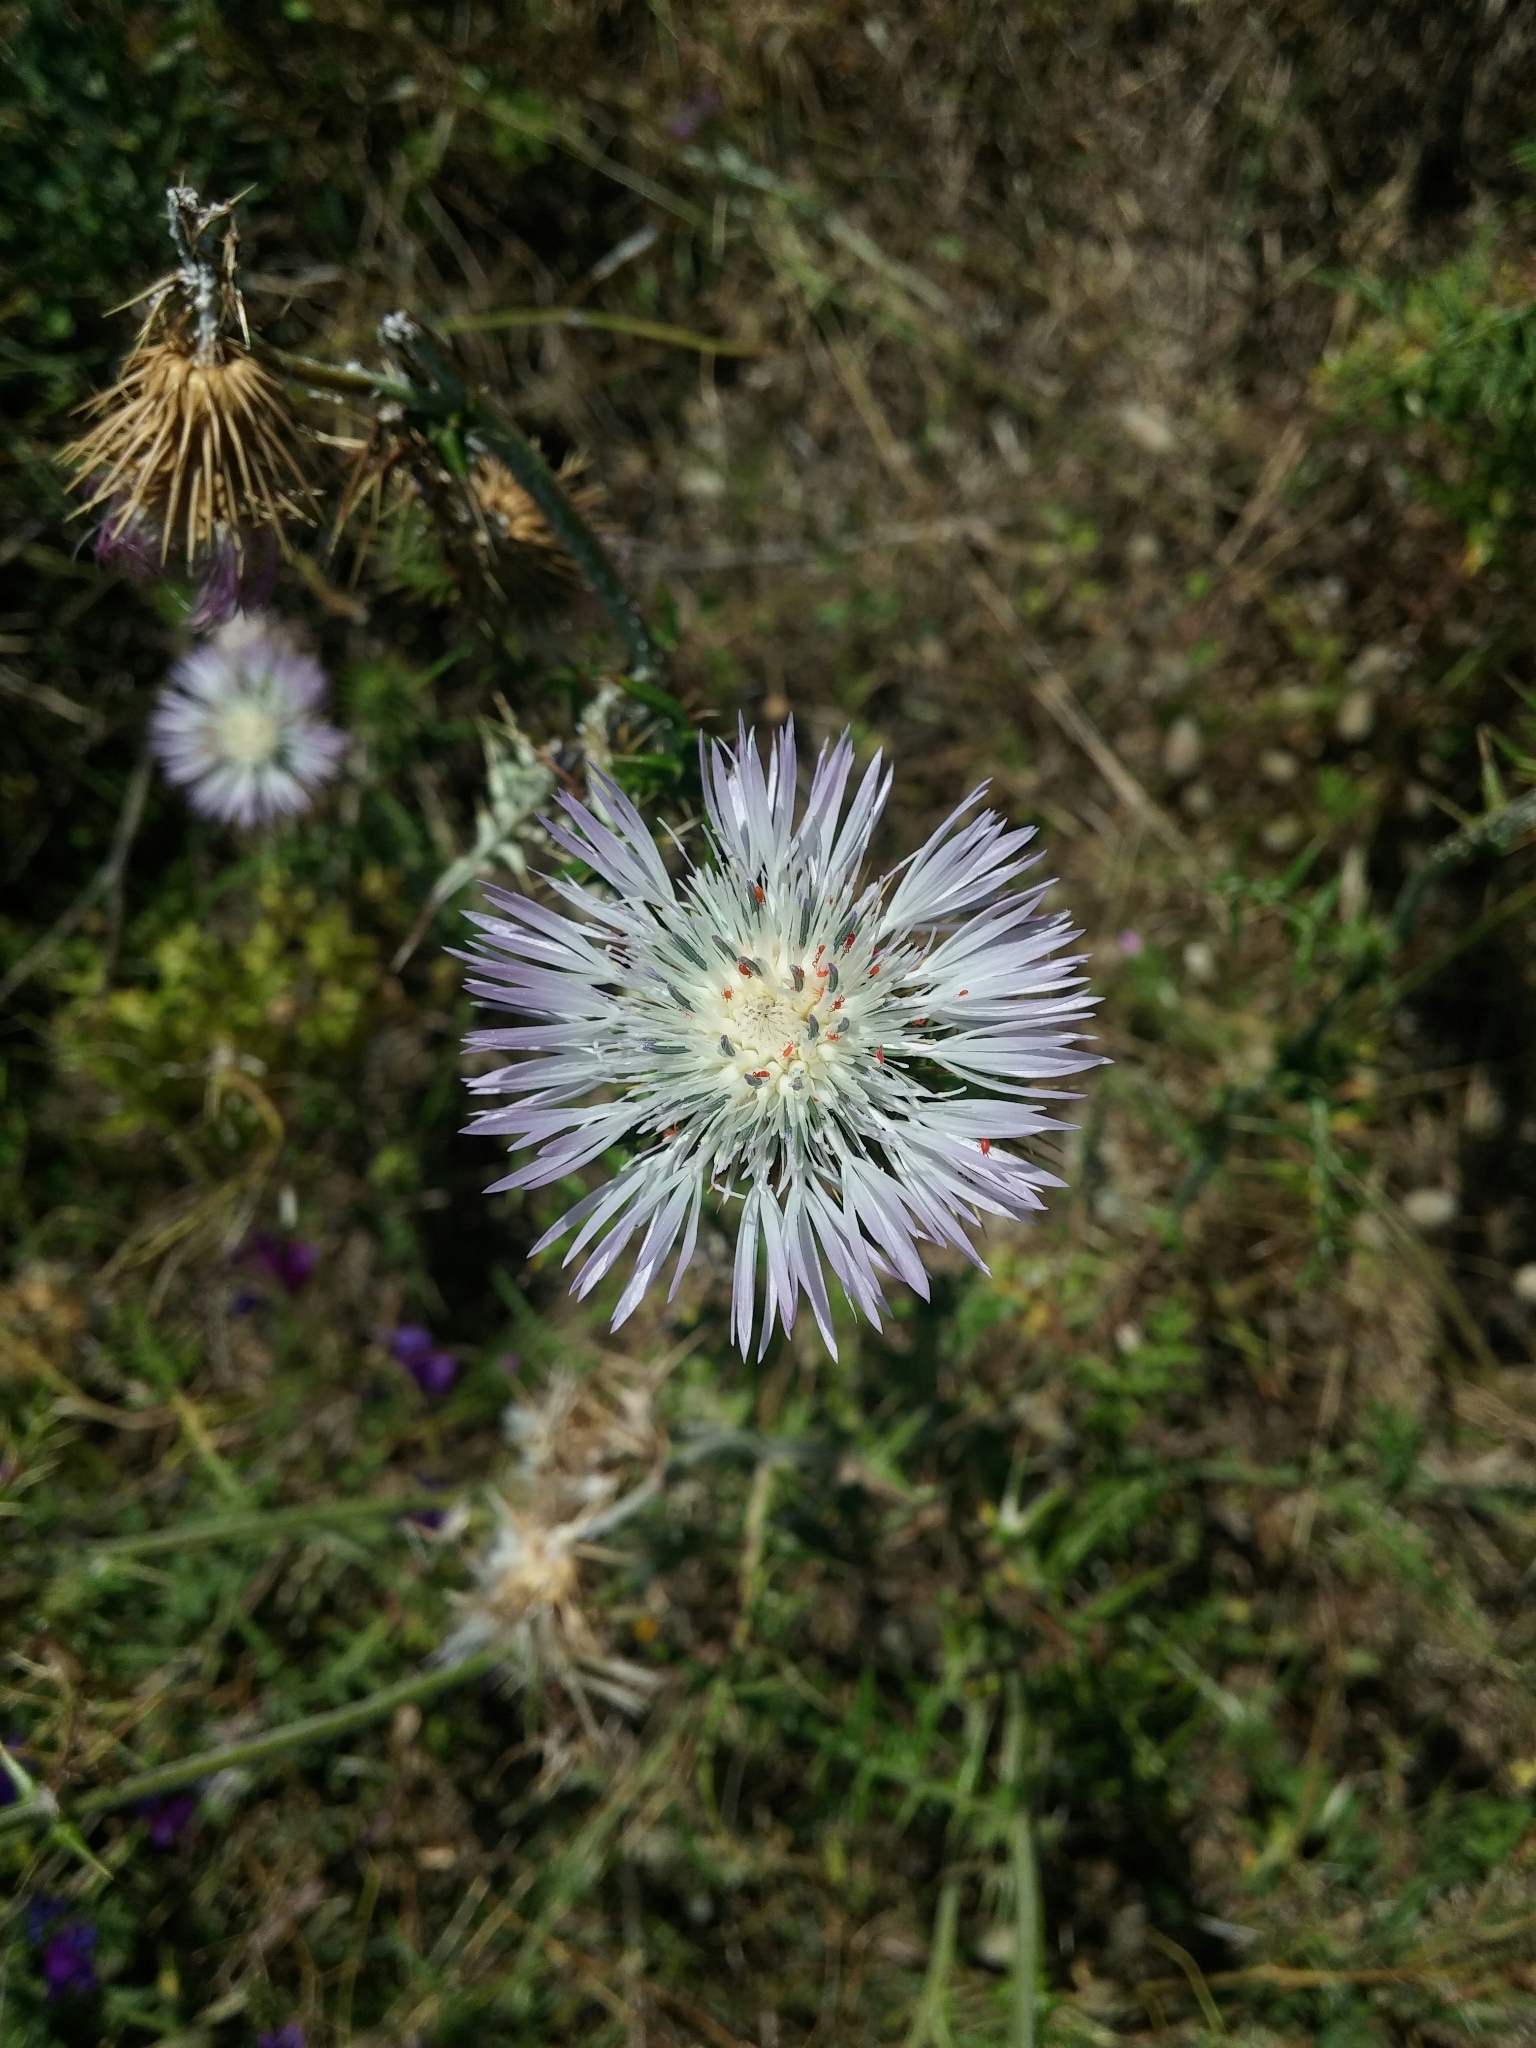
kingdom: Plantae
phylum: Tracheophyta
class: Magnoliopsida
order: Asterales
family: Asteraceae
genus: Galactites
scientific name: Galactites tomentosa
